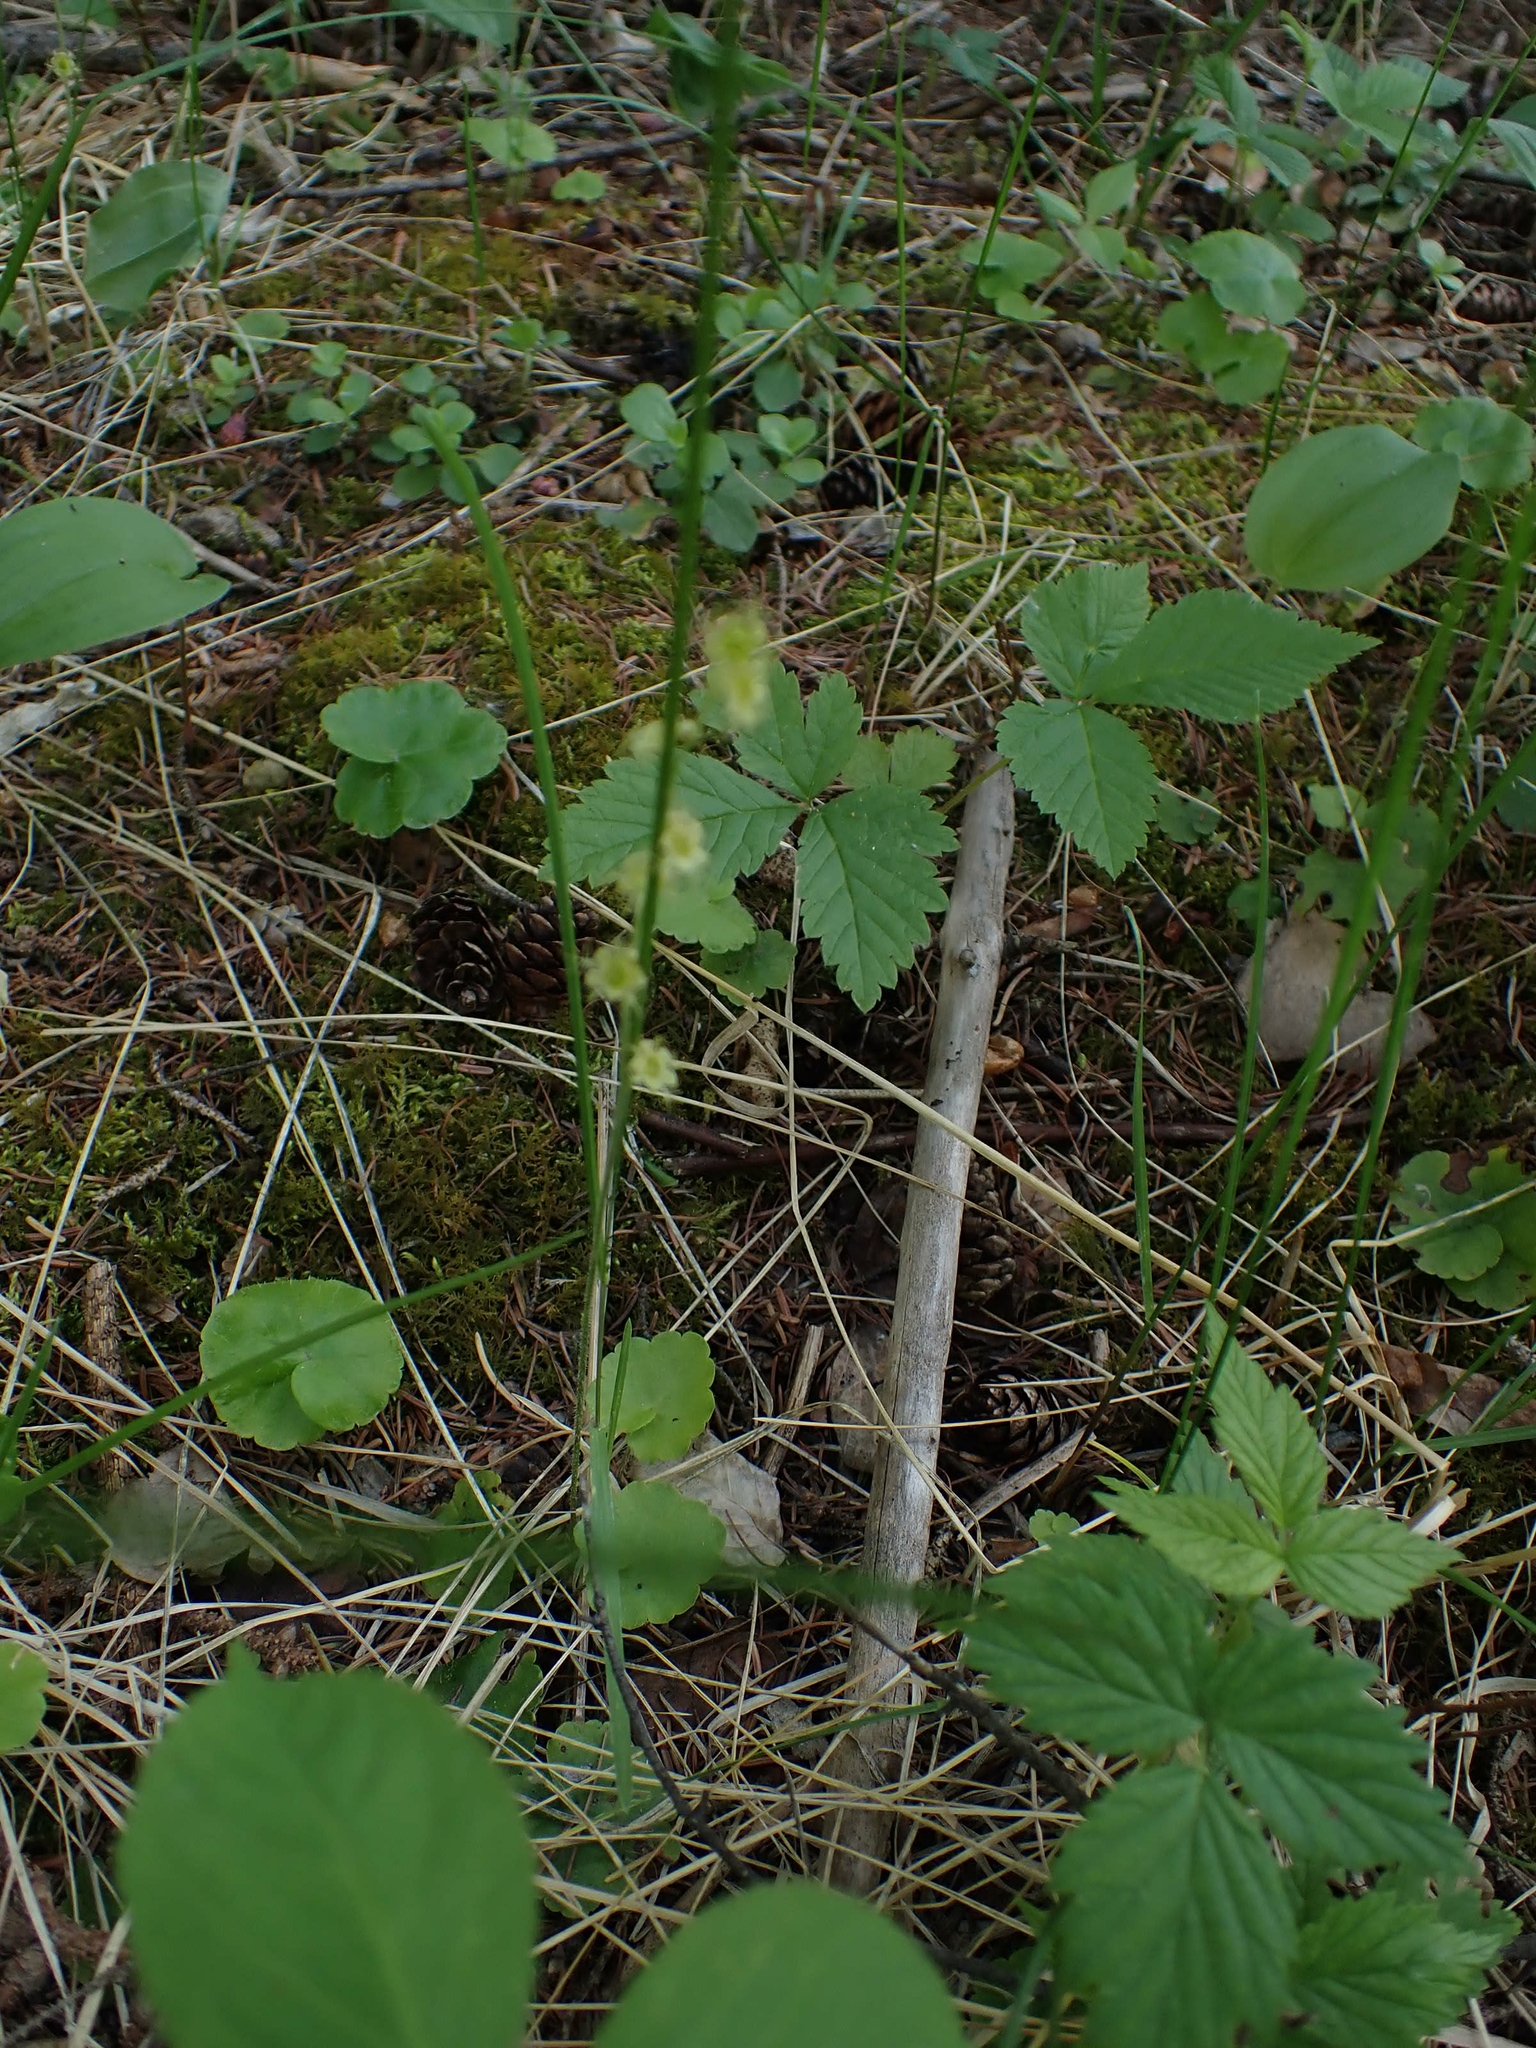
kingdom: Plantae
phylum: Tracheophyta
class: Magnoliopsida
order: Saxifragales
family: Saxifragaceae
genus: Mitella
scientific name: Mitella nuda
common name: Bare-stemmed bishop's-cap
